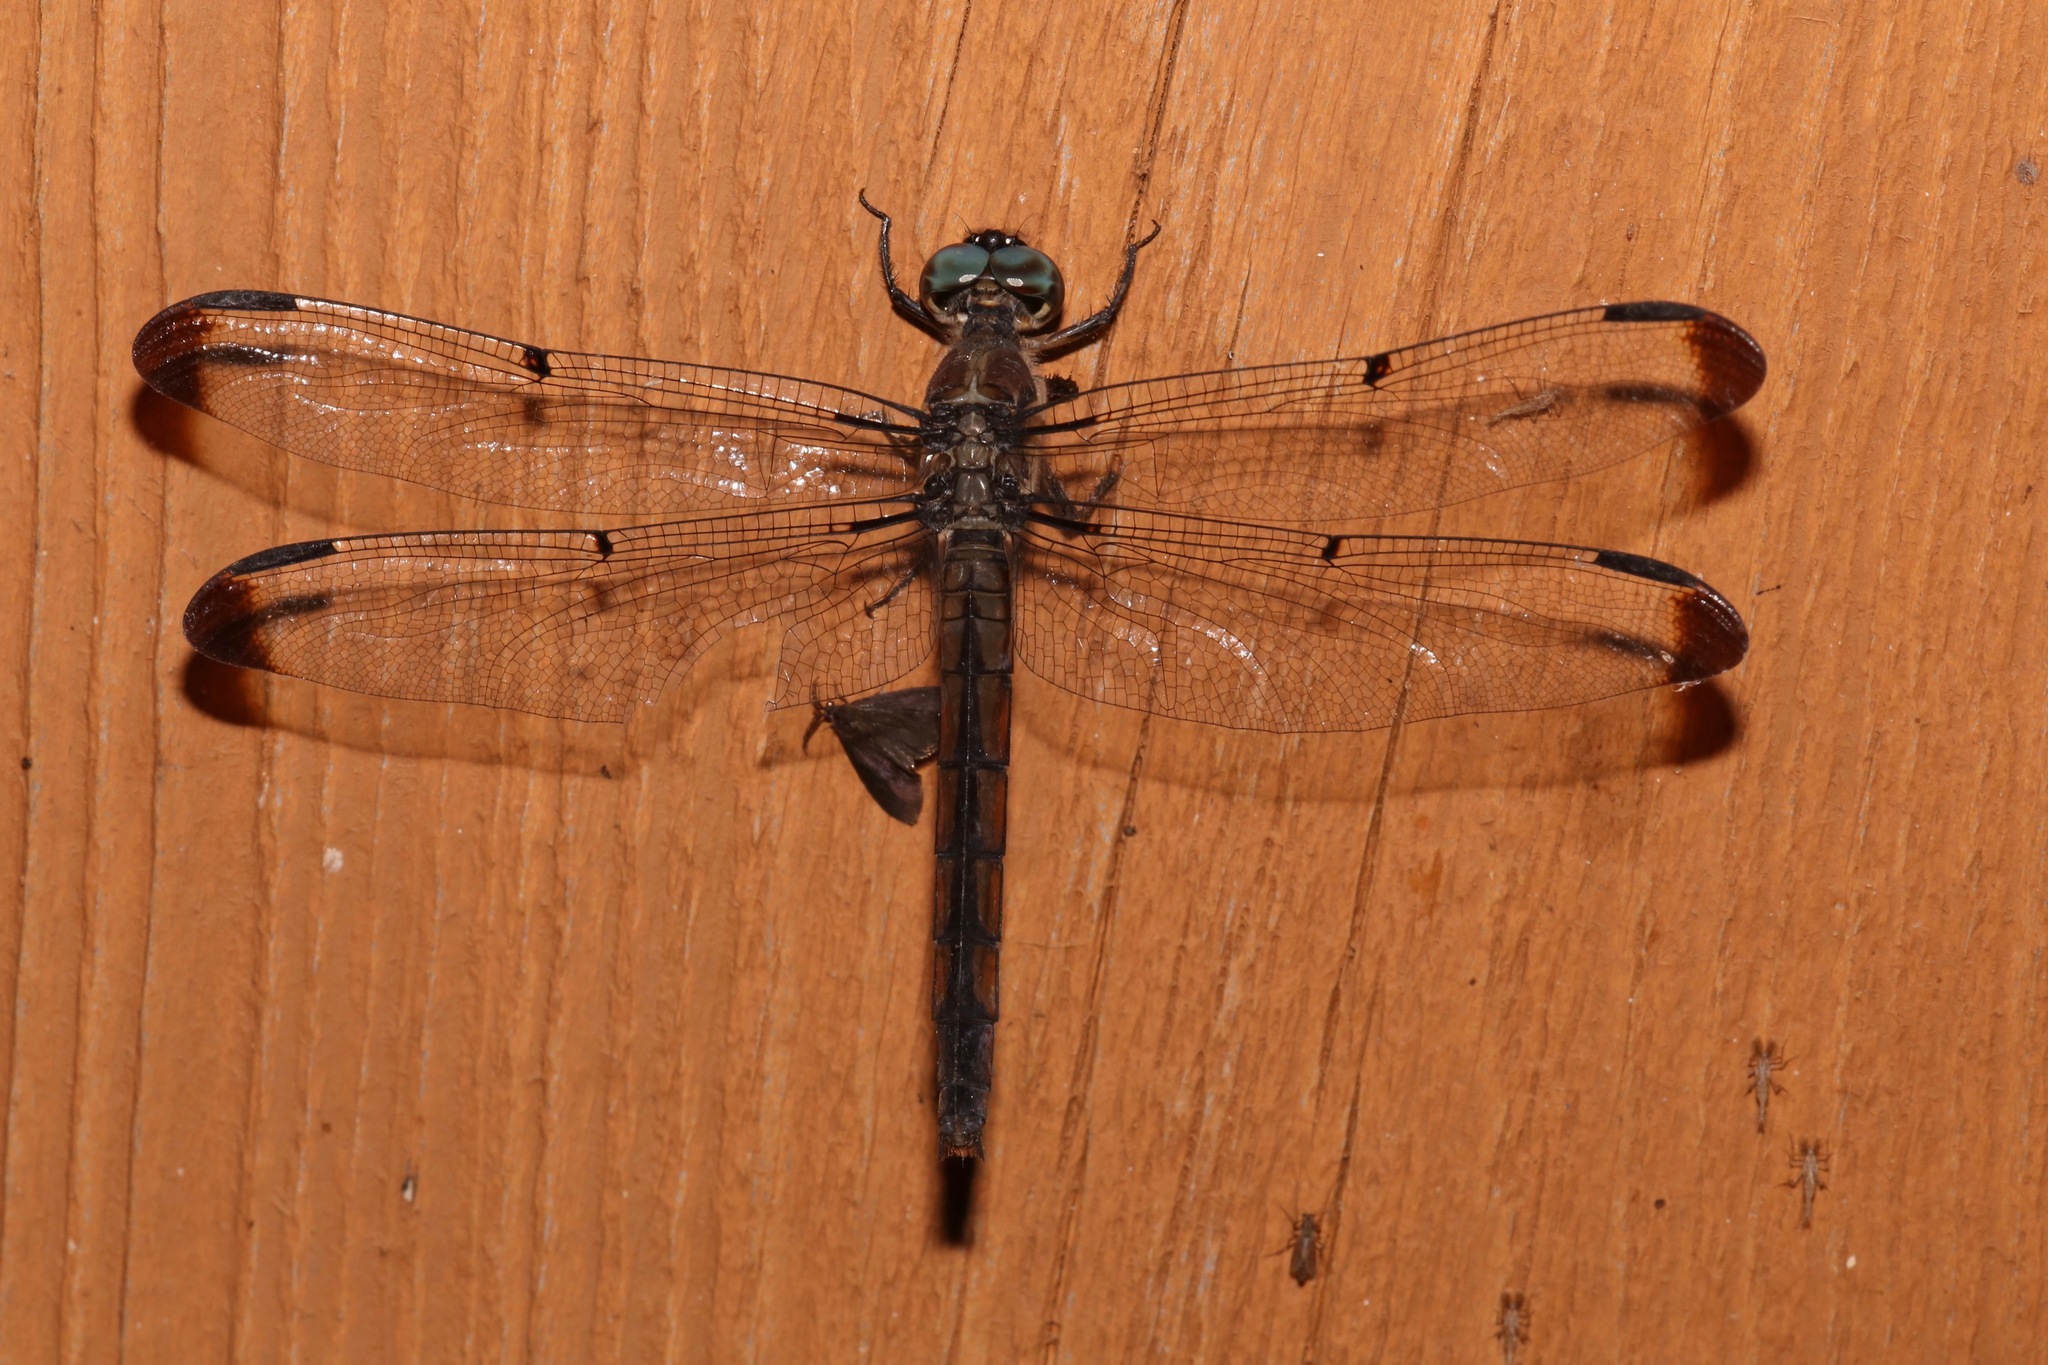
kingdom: Animalia
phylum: Arthropoda
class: Insecta
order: Odonata
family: Libellulidae
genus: Libellula
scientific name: Libellula vibrans
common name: Great blue skimmer
